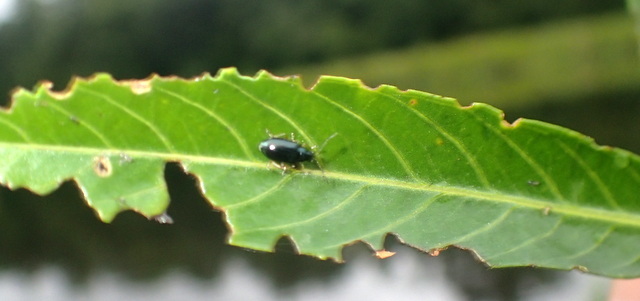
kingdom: Animalia
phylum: Arthropoda
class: Insecta
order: Coleoptera
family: Chrysomelidae
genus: Lysathia
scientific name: Lysathia ludoviciana
